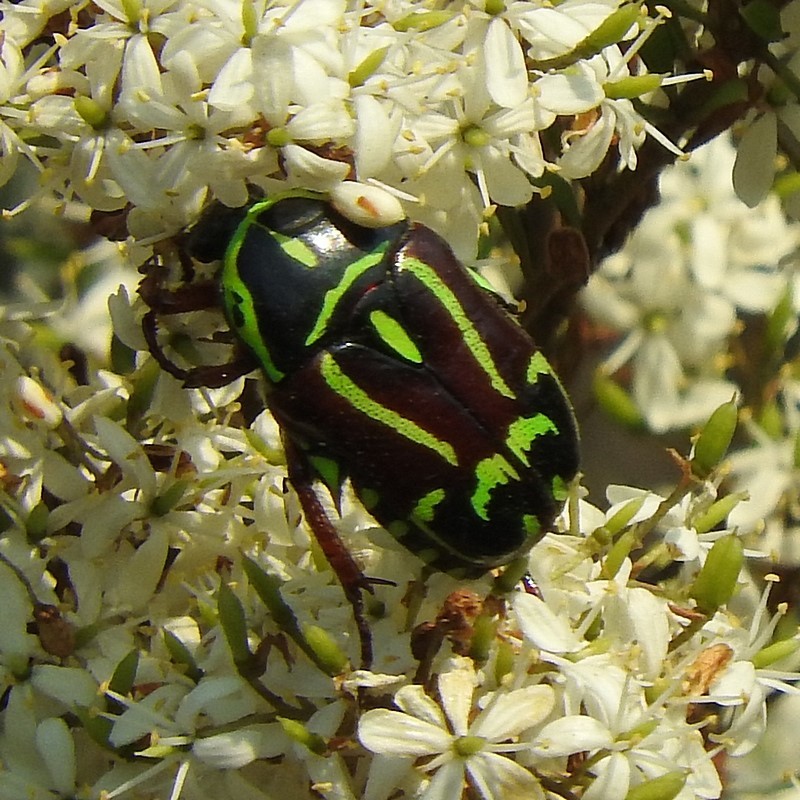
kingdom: Animalia
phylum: Arthropoda
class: Insecta
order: Coleoptera
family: Scarabaeidae
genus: Eupoecila
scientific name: Eupoecila australasiae
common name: Fiddler beetle
